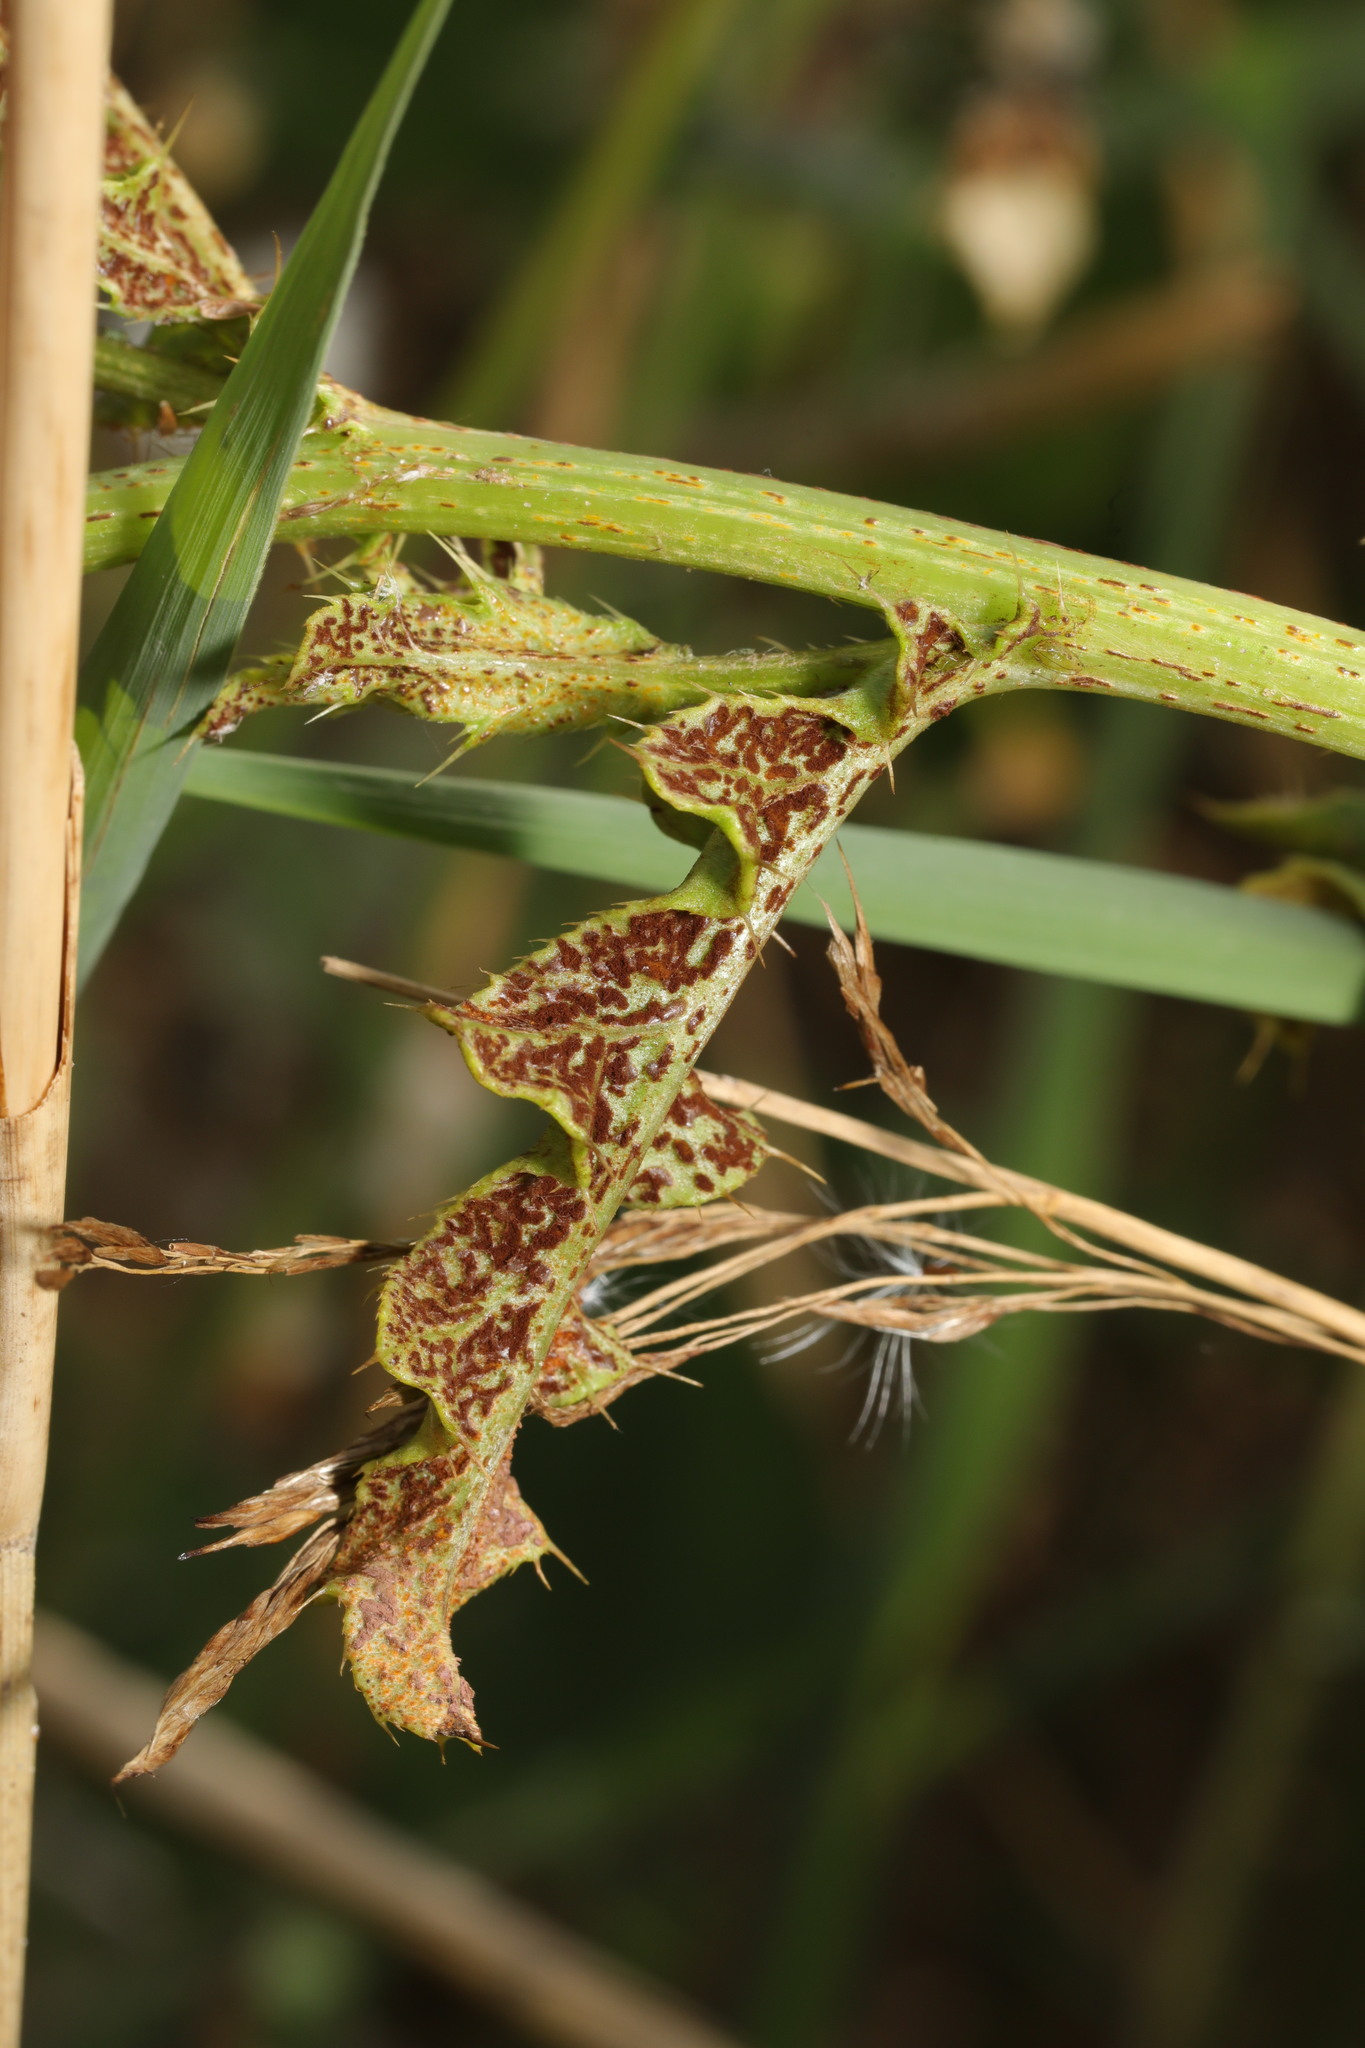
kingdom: Fungi
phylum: Basidiomycota
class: Pucciniomycetes
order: Pucciniales
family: Pucciniaceae
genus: Puccinia
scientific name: Puccinia suaveolens
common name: Thistle rust
